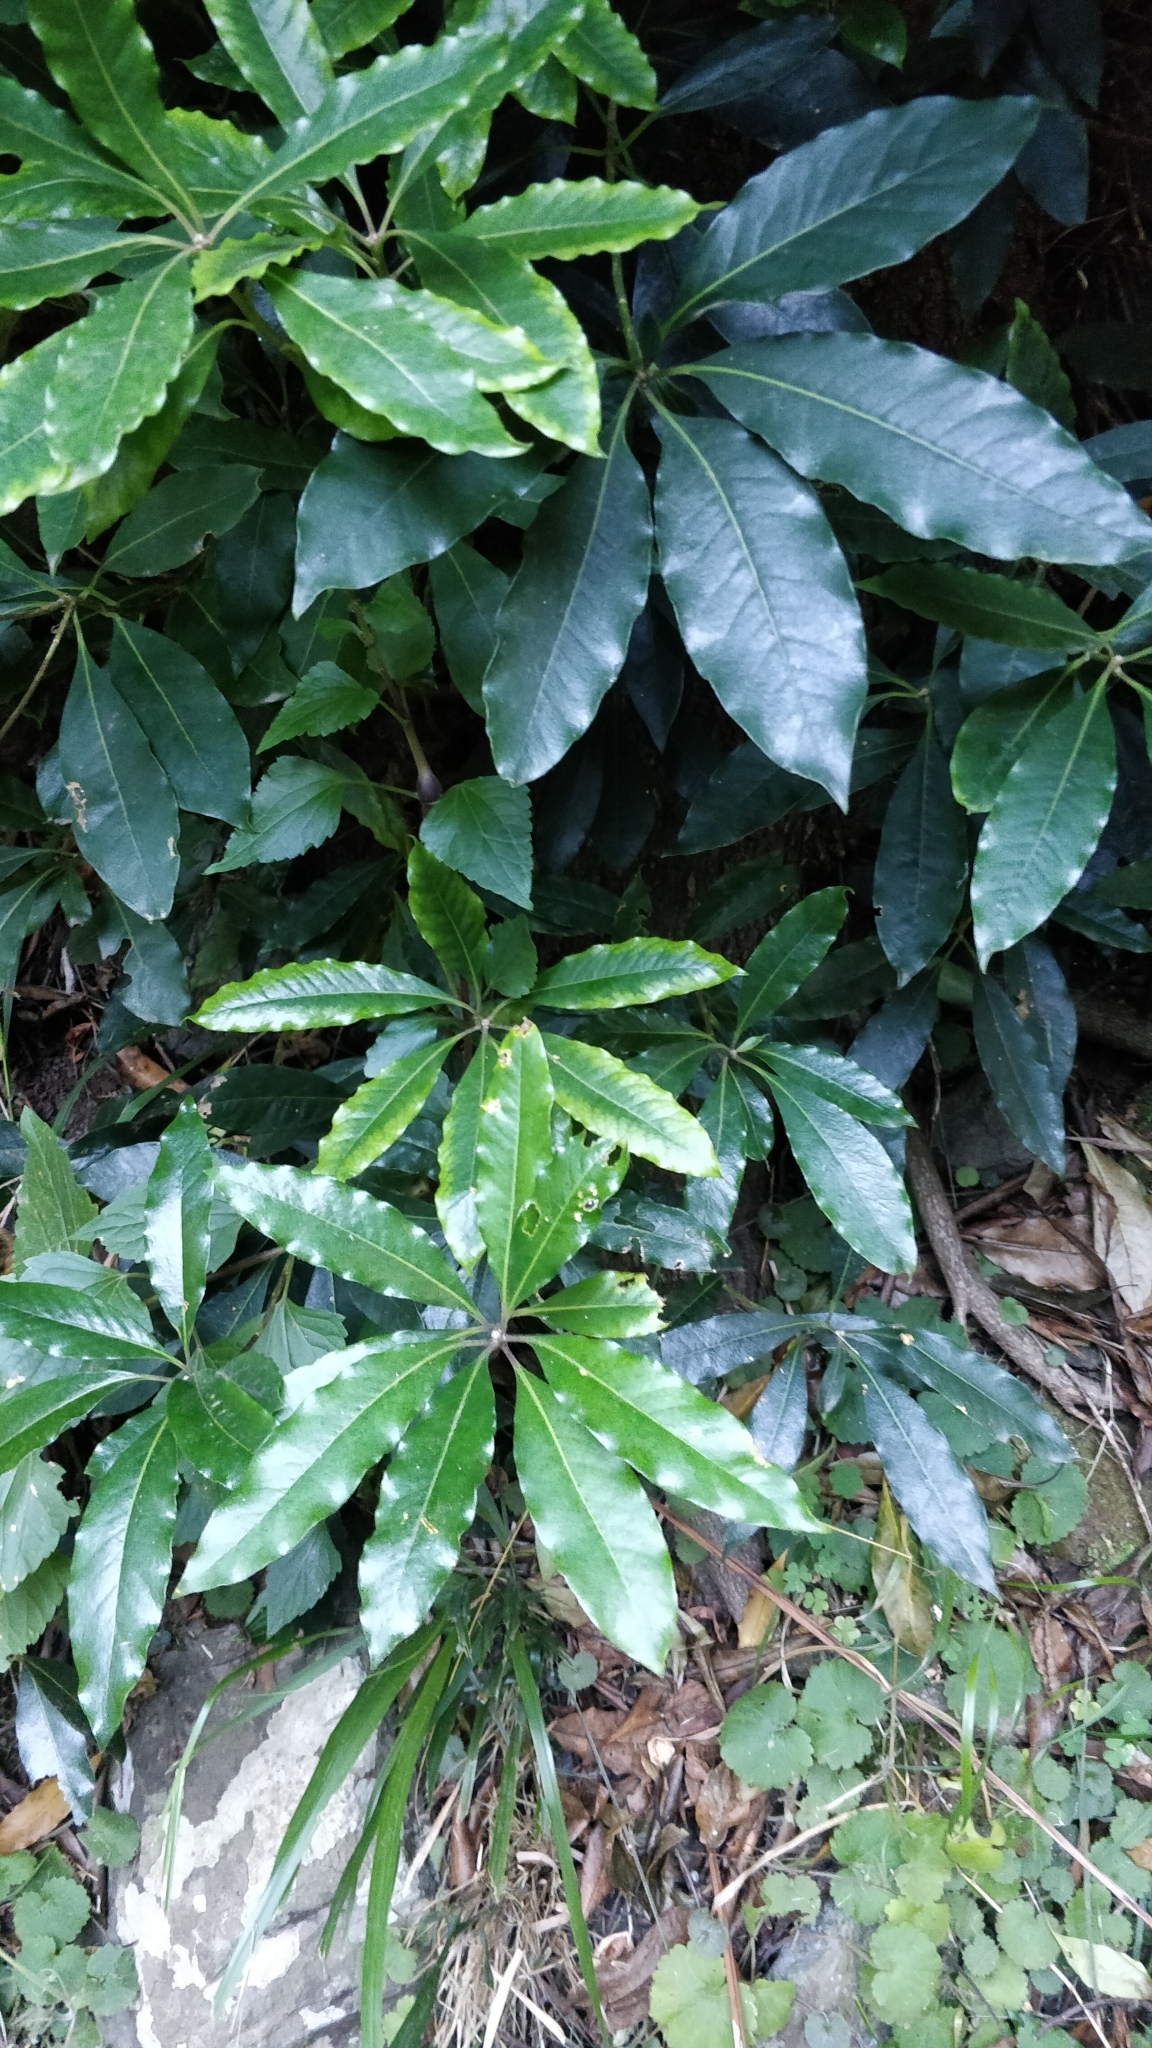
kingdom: Plantae
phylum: Tracheophyta
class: Magnoliopsida
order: Apiales
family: Pittosporaceae
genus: Pittosporum
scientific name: Pittosporum undulatum
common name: Australian cheesewood
